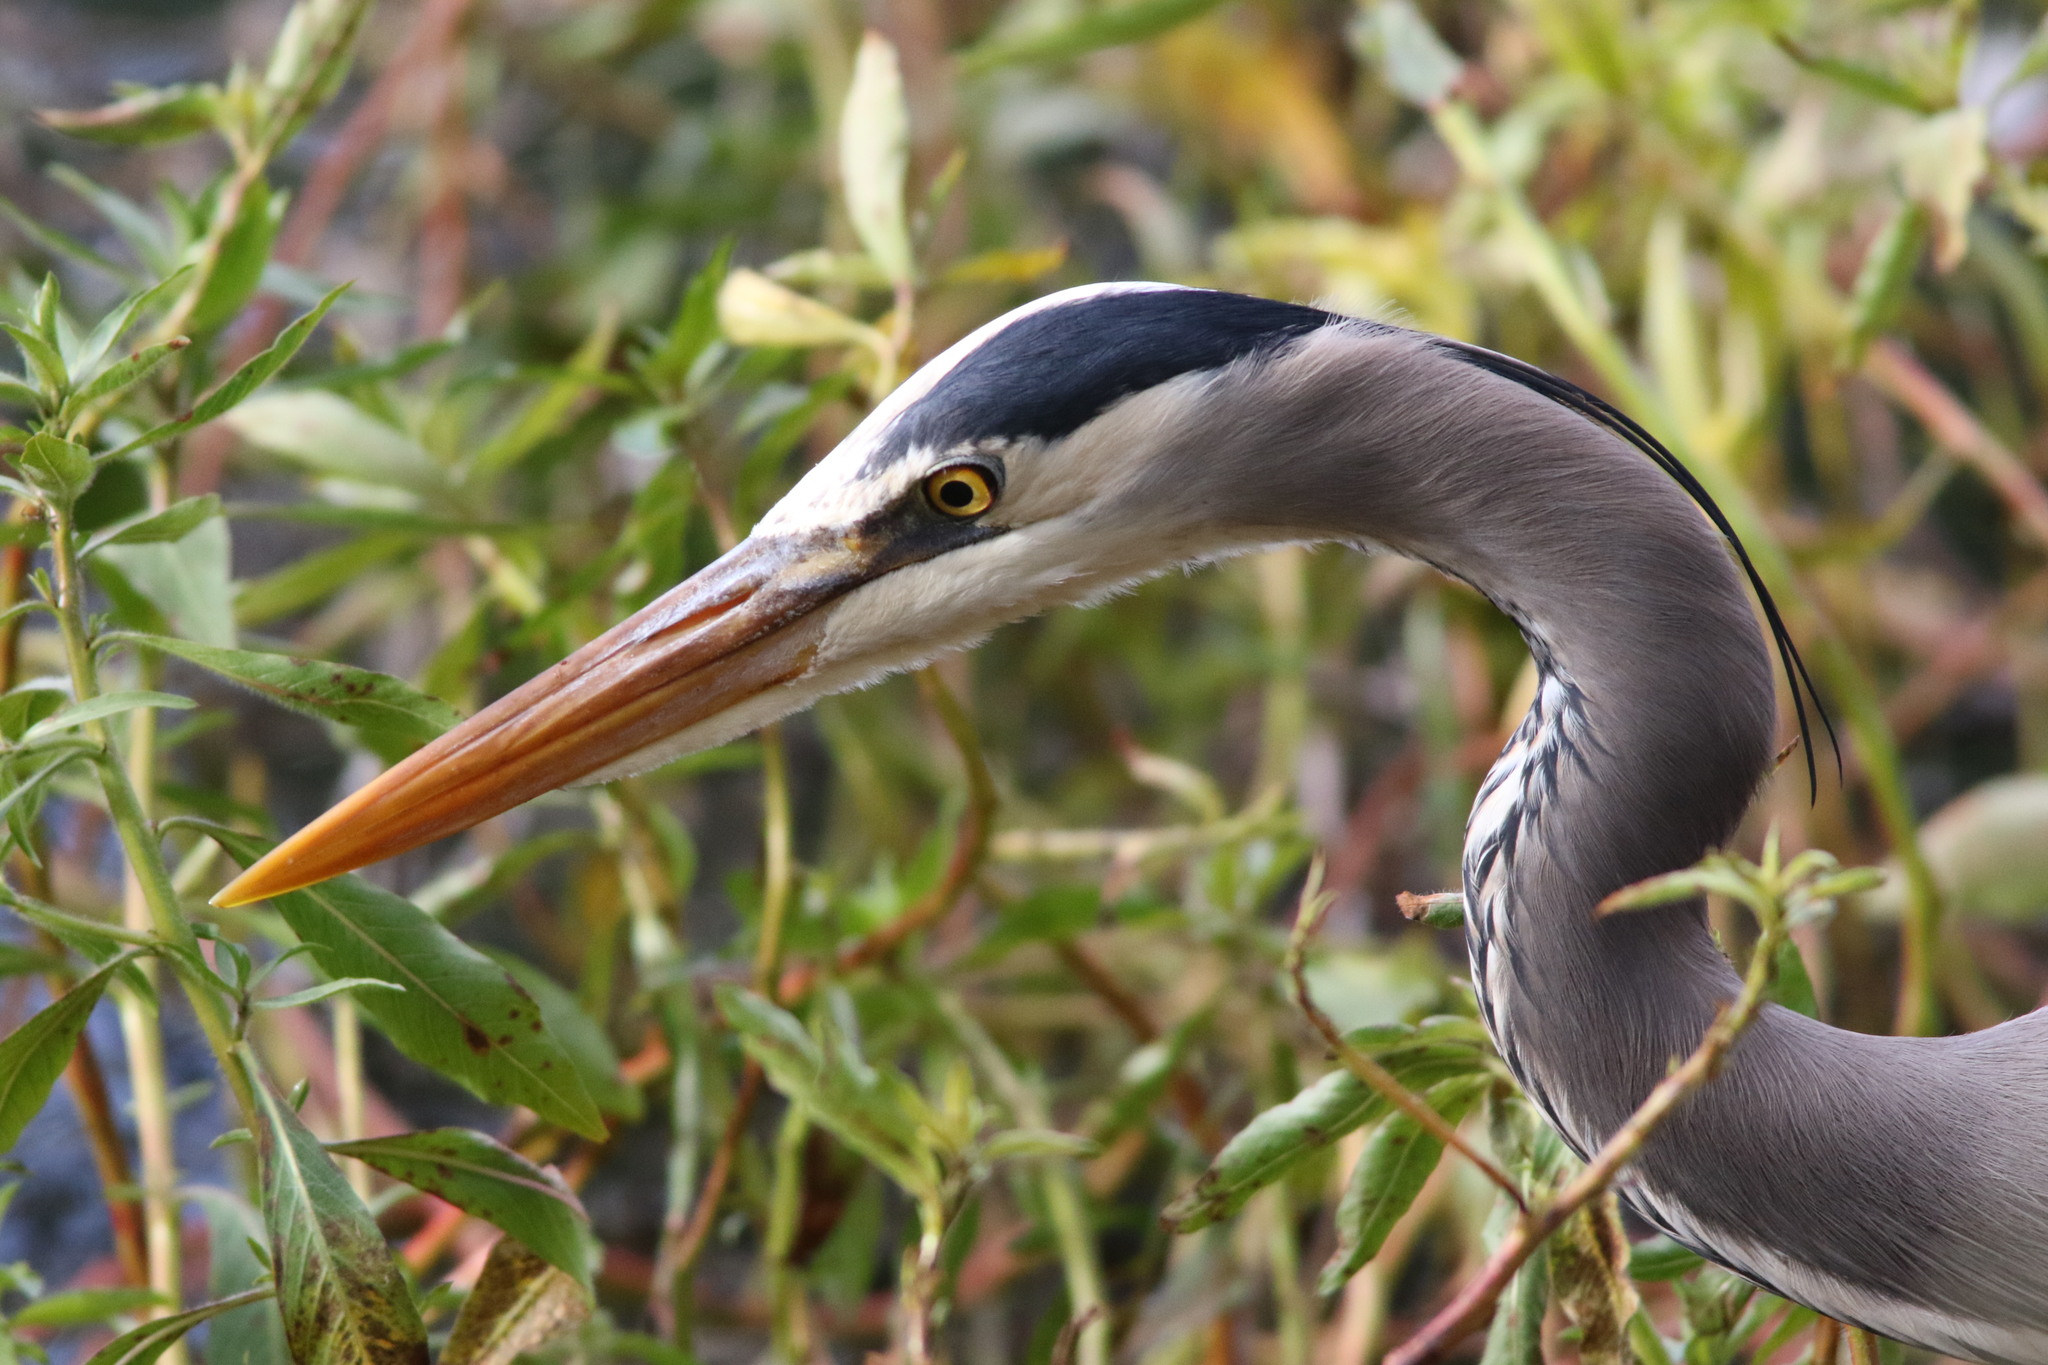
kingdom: Animalia
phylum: Chordata
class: Aves
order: Pelecaniformes
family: Ardeidae
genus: Ardea
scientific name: Ardea herodias
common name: Great blue heron
